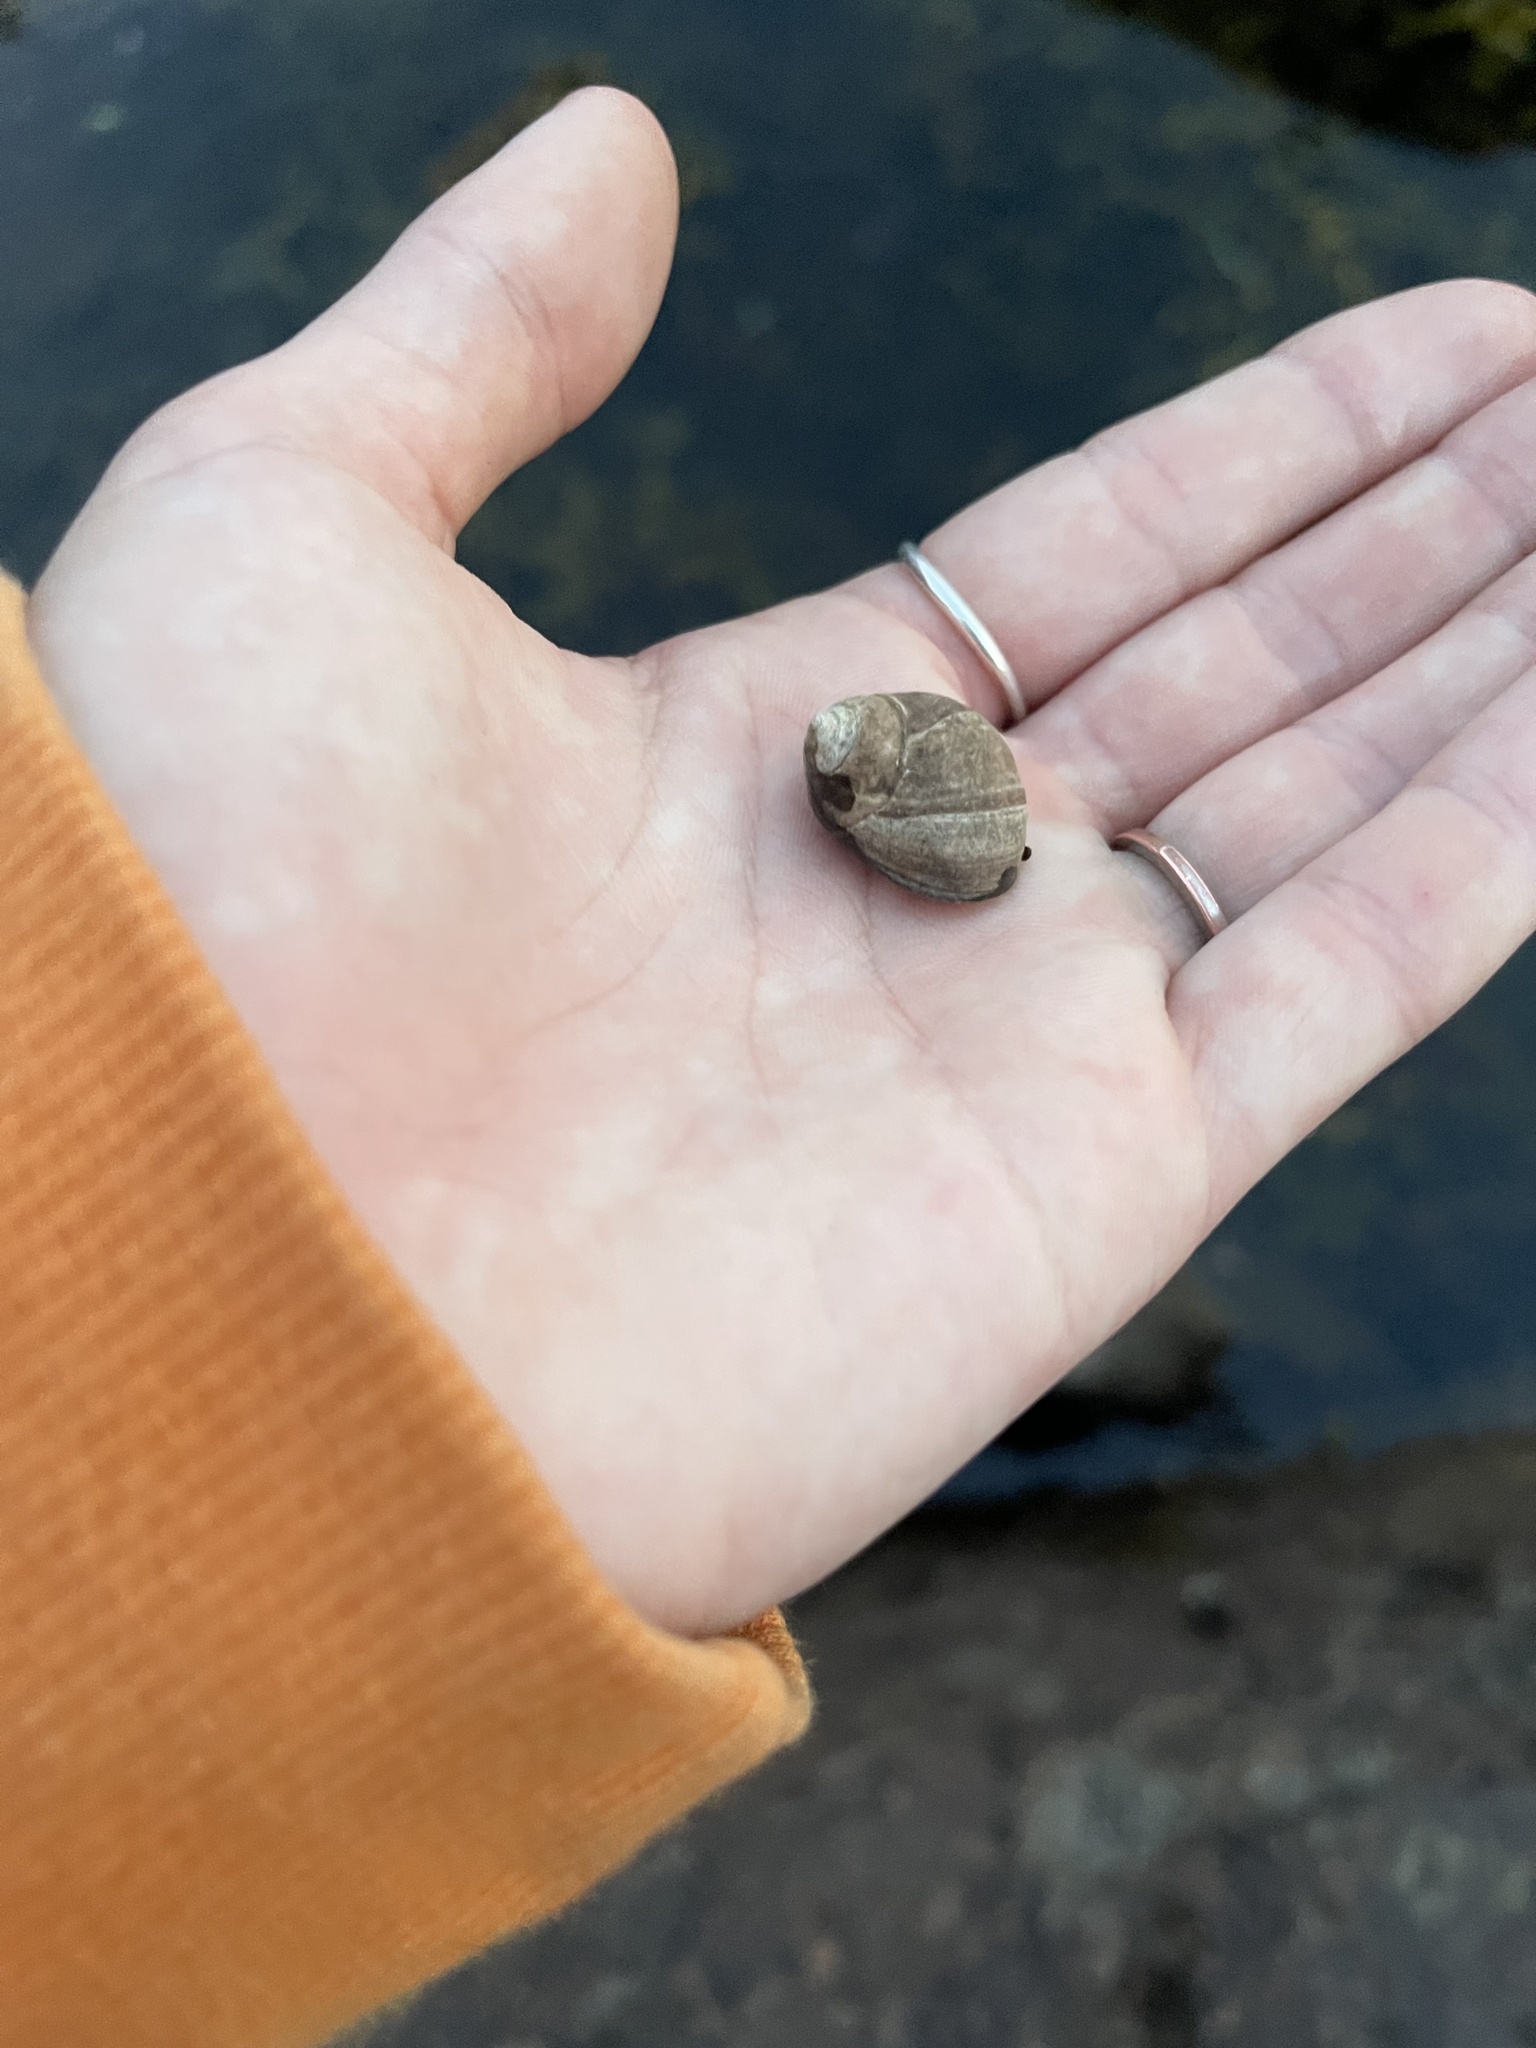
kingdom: Animalia
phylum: Mollusca
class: Gastropoda
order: Littorinimorpha
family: Littorinidae
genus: Littorina
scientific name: Littorina littorea
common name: Common periwinkle
